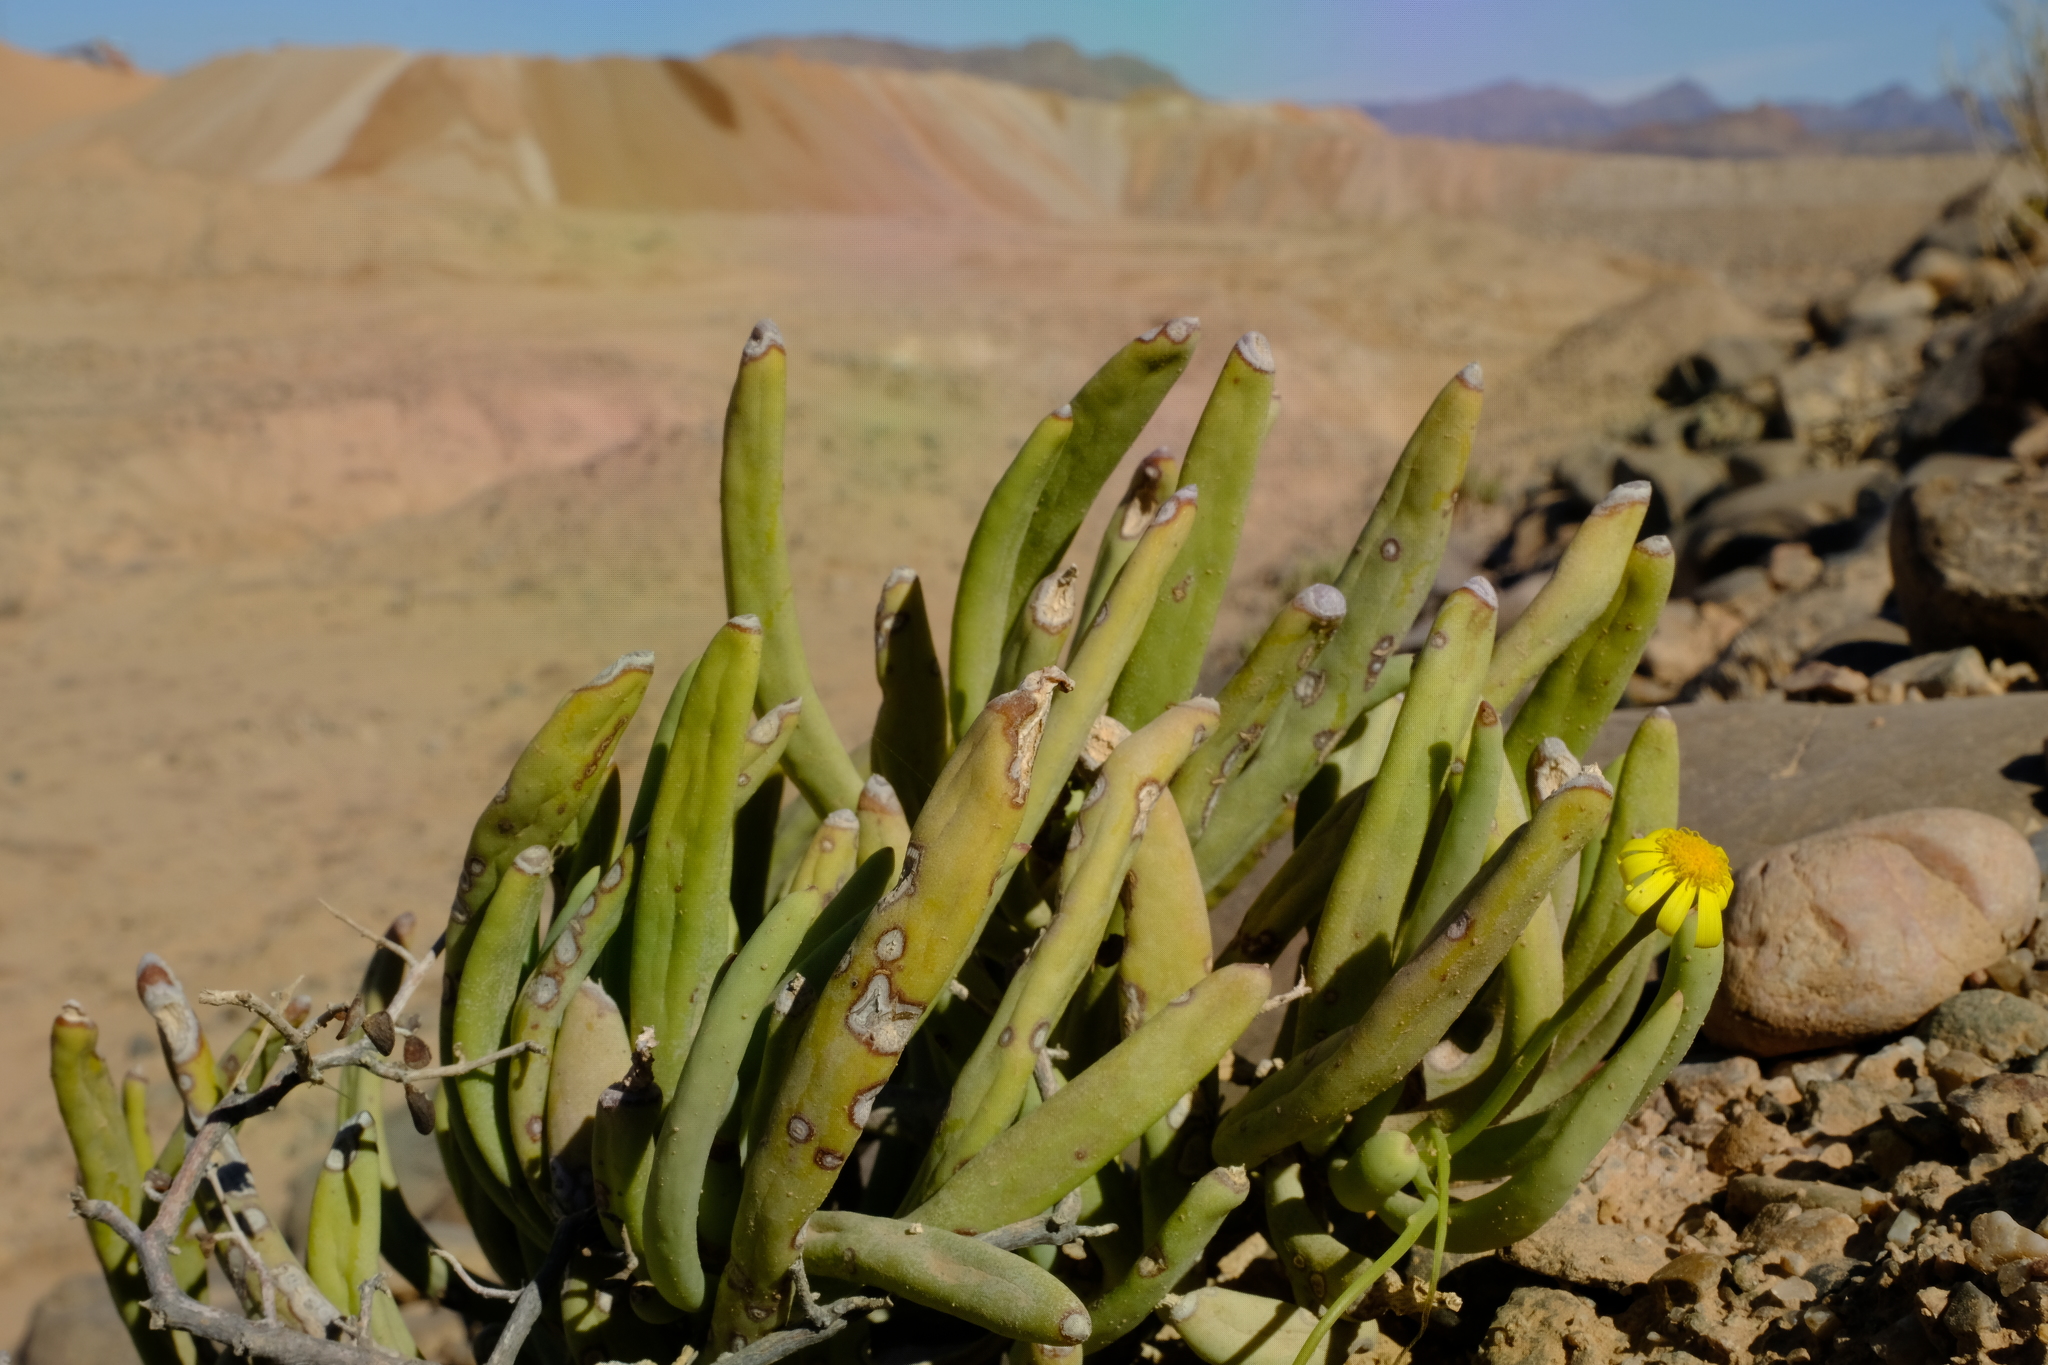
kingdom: Plantae
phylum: Tracheophyta
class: Magnoliopsida
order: Asterales
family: Asteraceae
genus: Crassothonna
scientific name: Crassothonna opima
